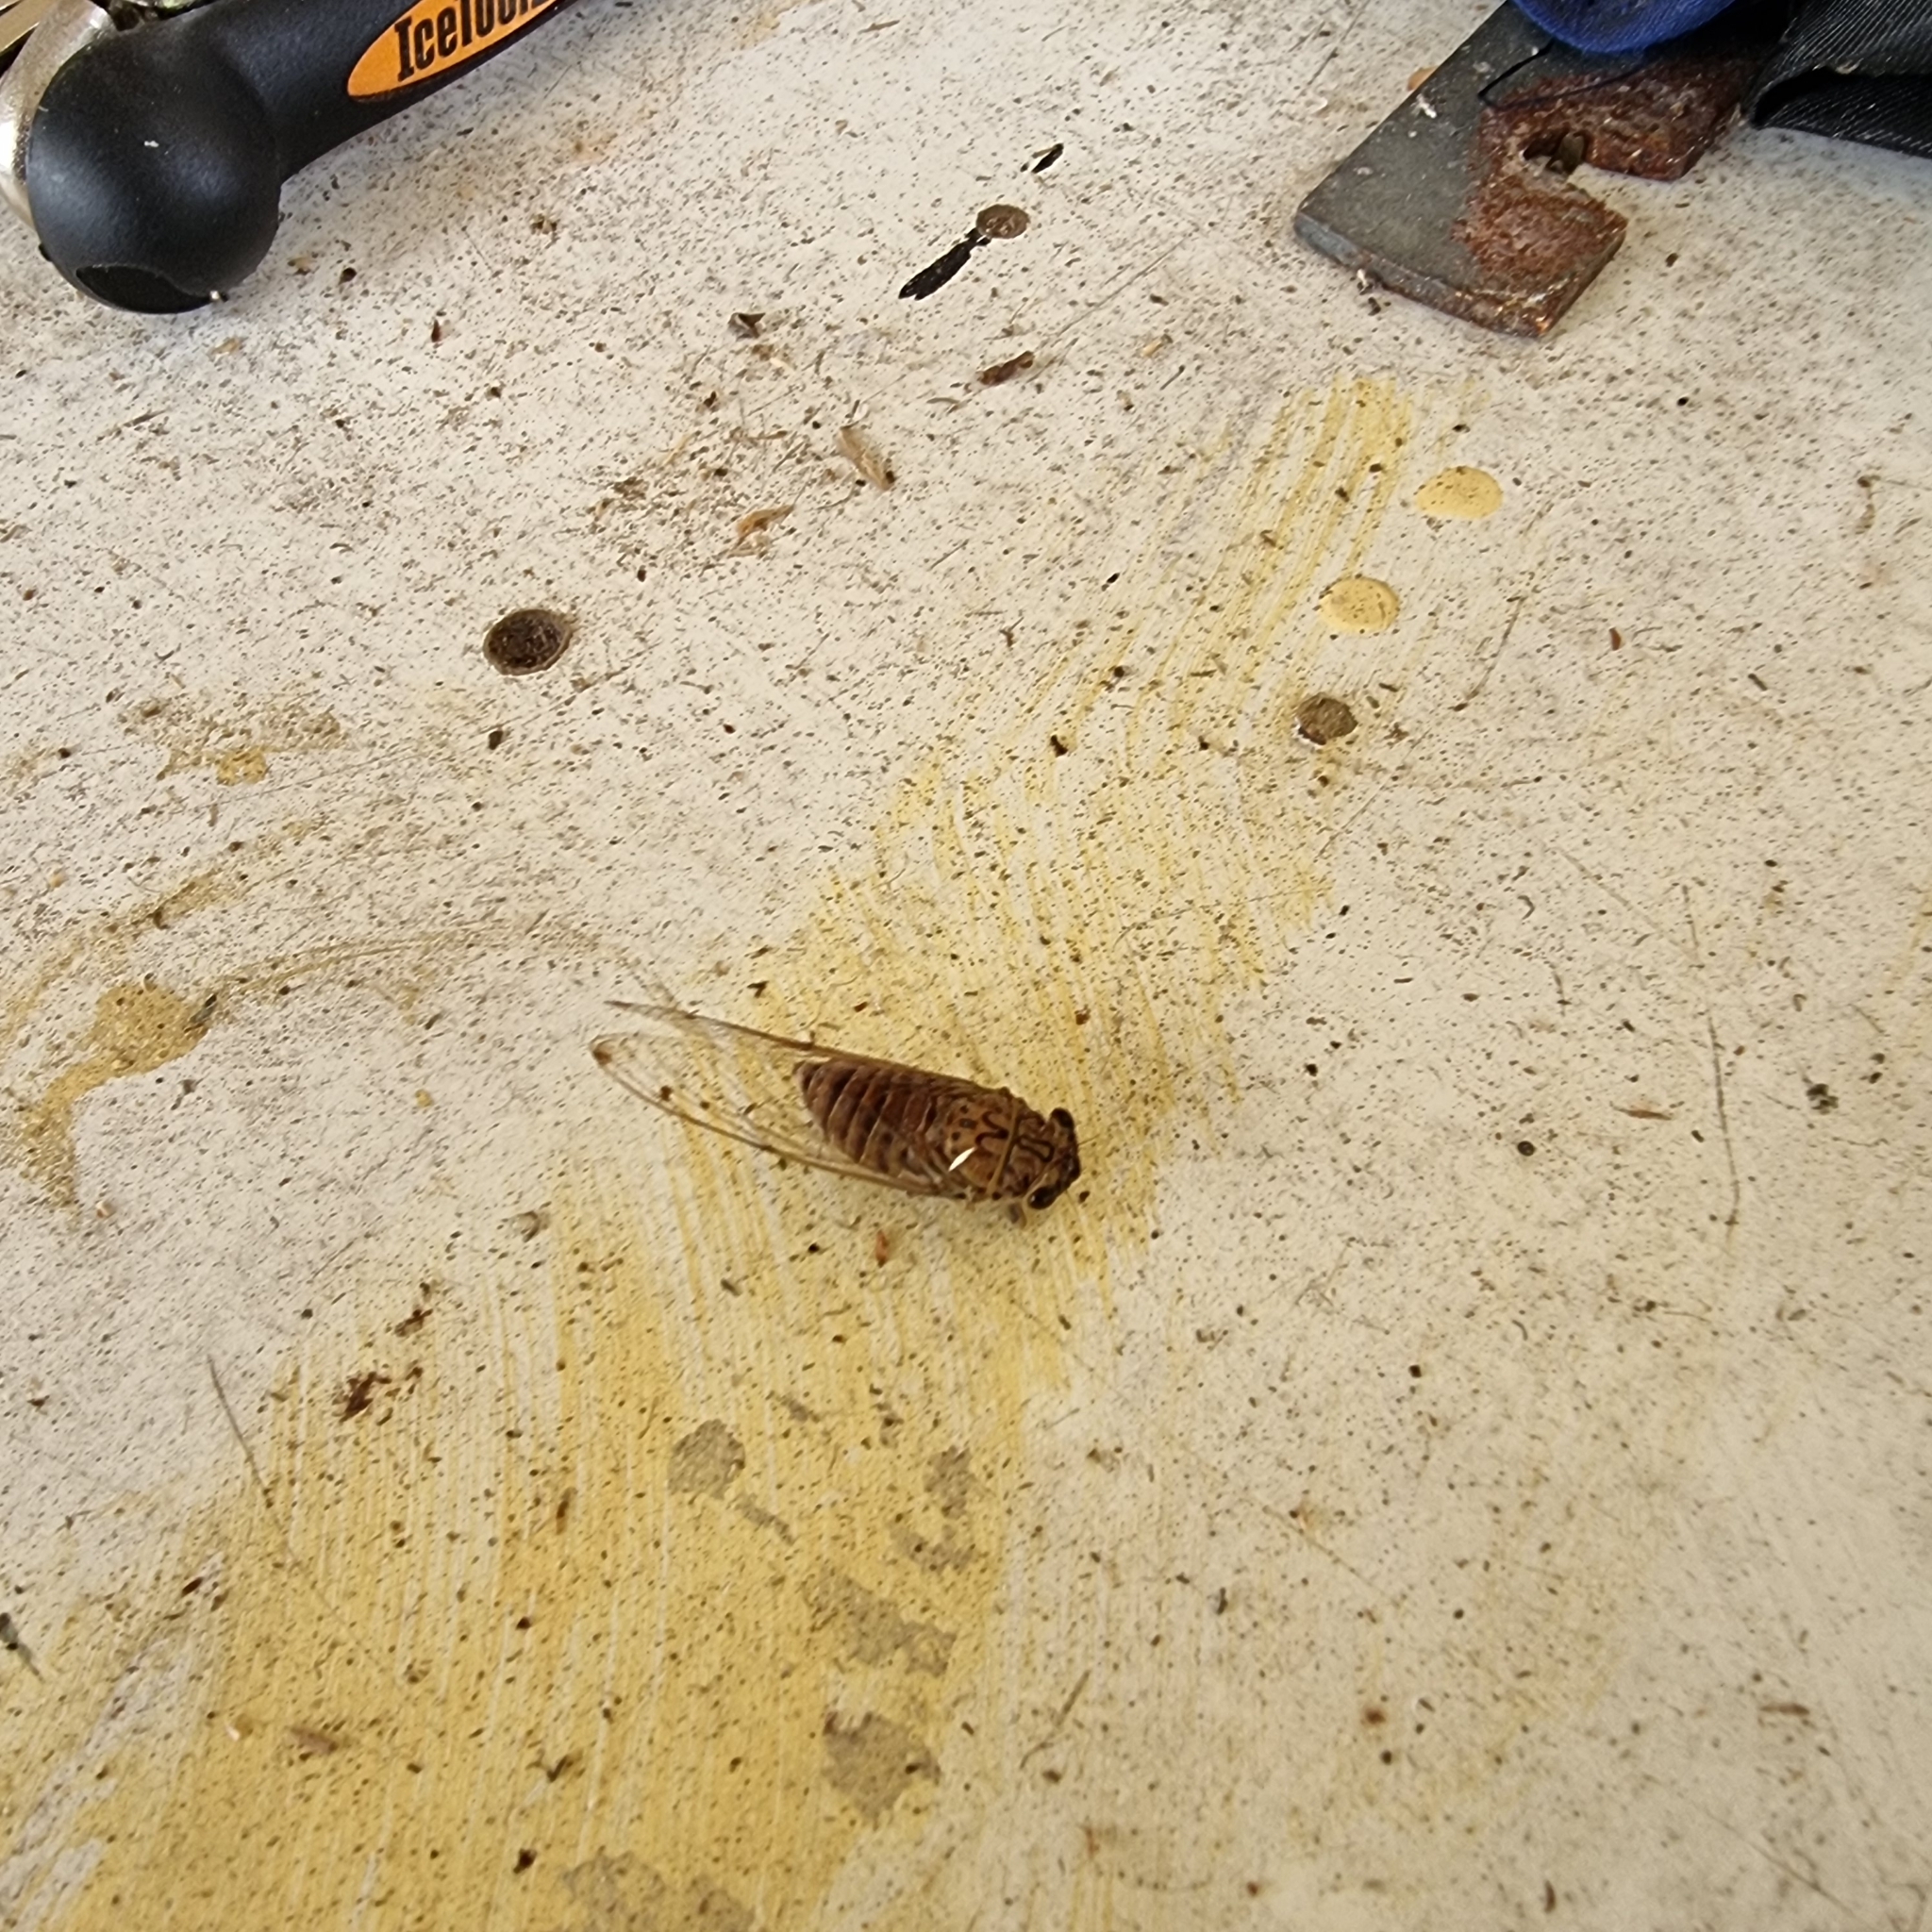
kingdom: Animalia
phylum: Arthropoda
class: Insecta
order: Hemiptera
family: Cicadidae
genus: Tamasa
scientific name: Tamasa tristigma
